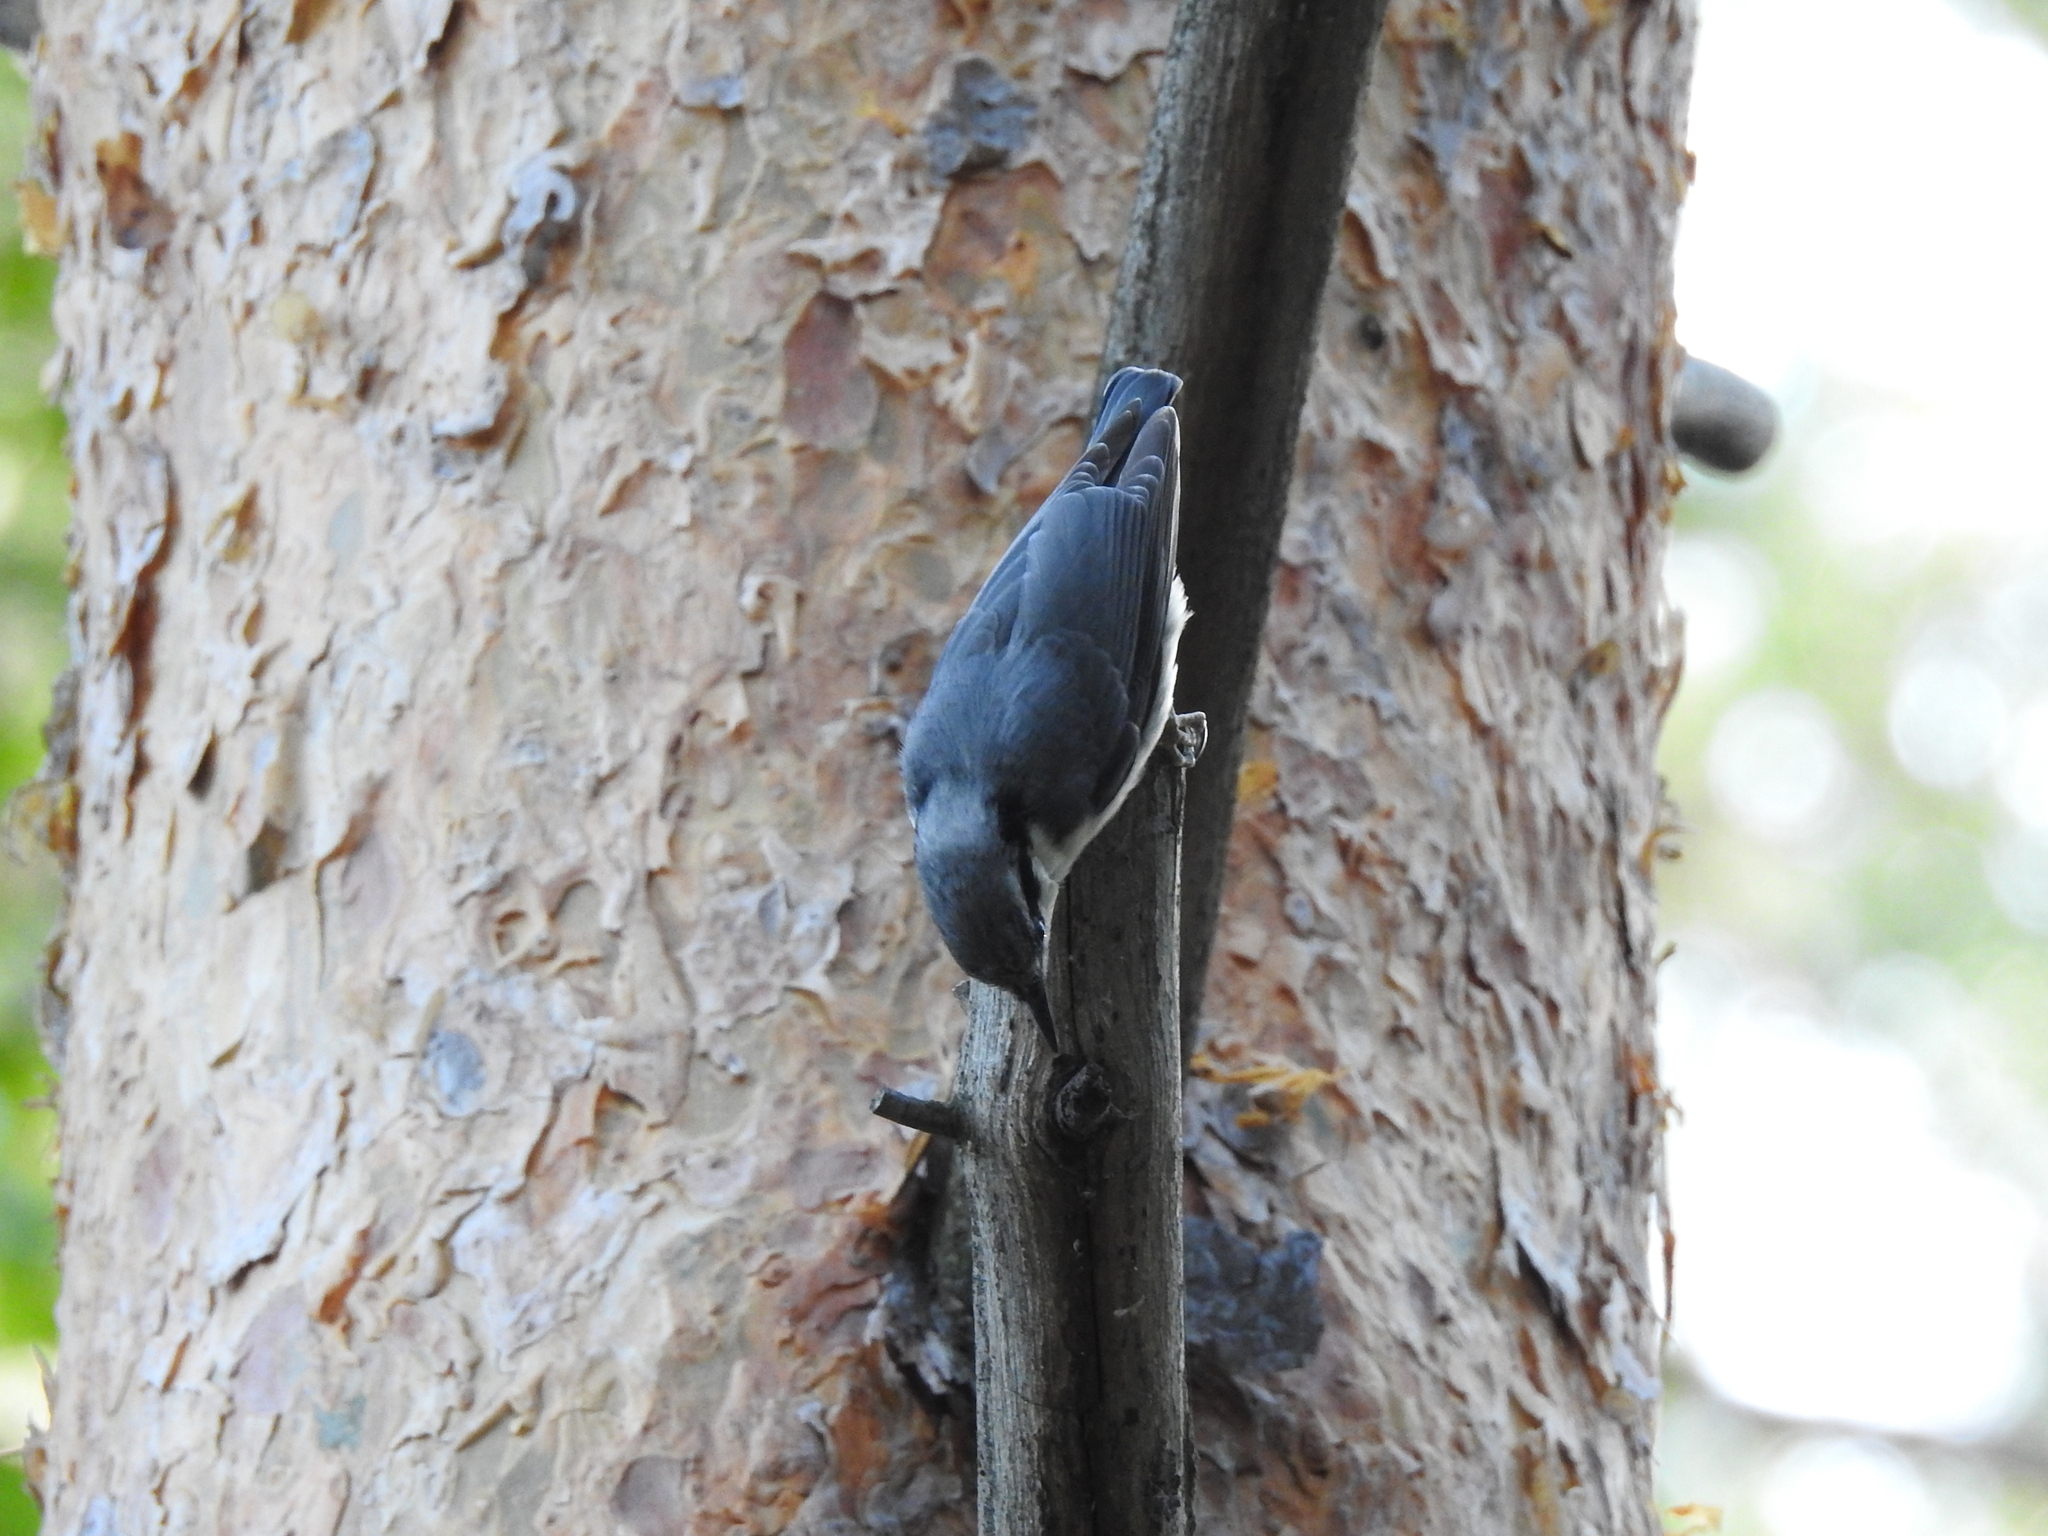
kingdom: Animalia
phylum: Chordata
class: Aves
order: Passeriformes
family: Sittidae
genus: Sitta
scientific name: Sitta europaea
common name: Eurasian nuthatch
